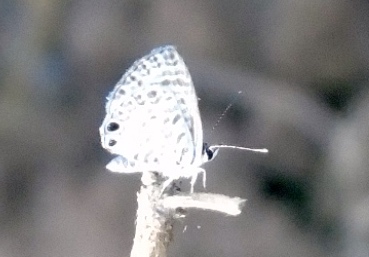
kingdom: Animalia
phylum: Arthropoda
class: Insecta
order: Lepidoptera
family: Lycaenidae
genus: Leptotes
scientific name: Leptotes
